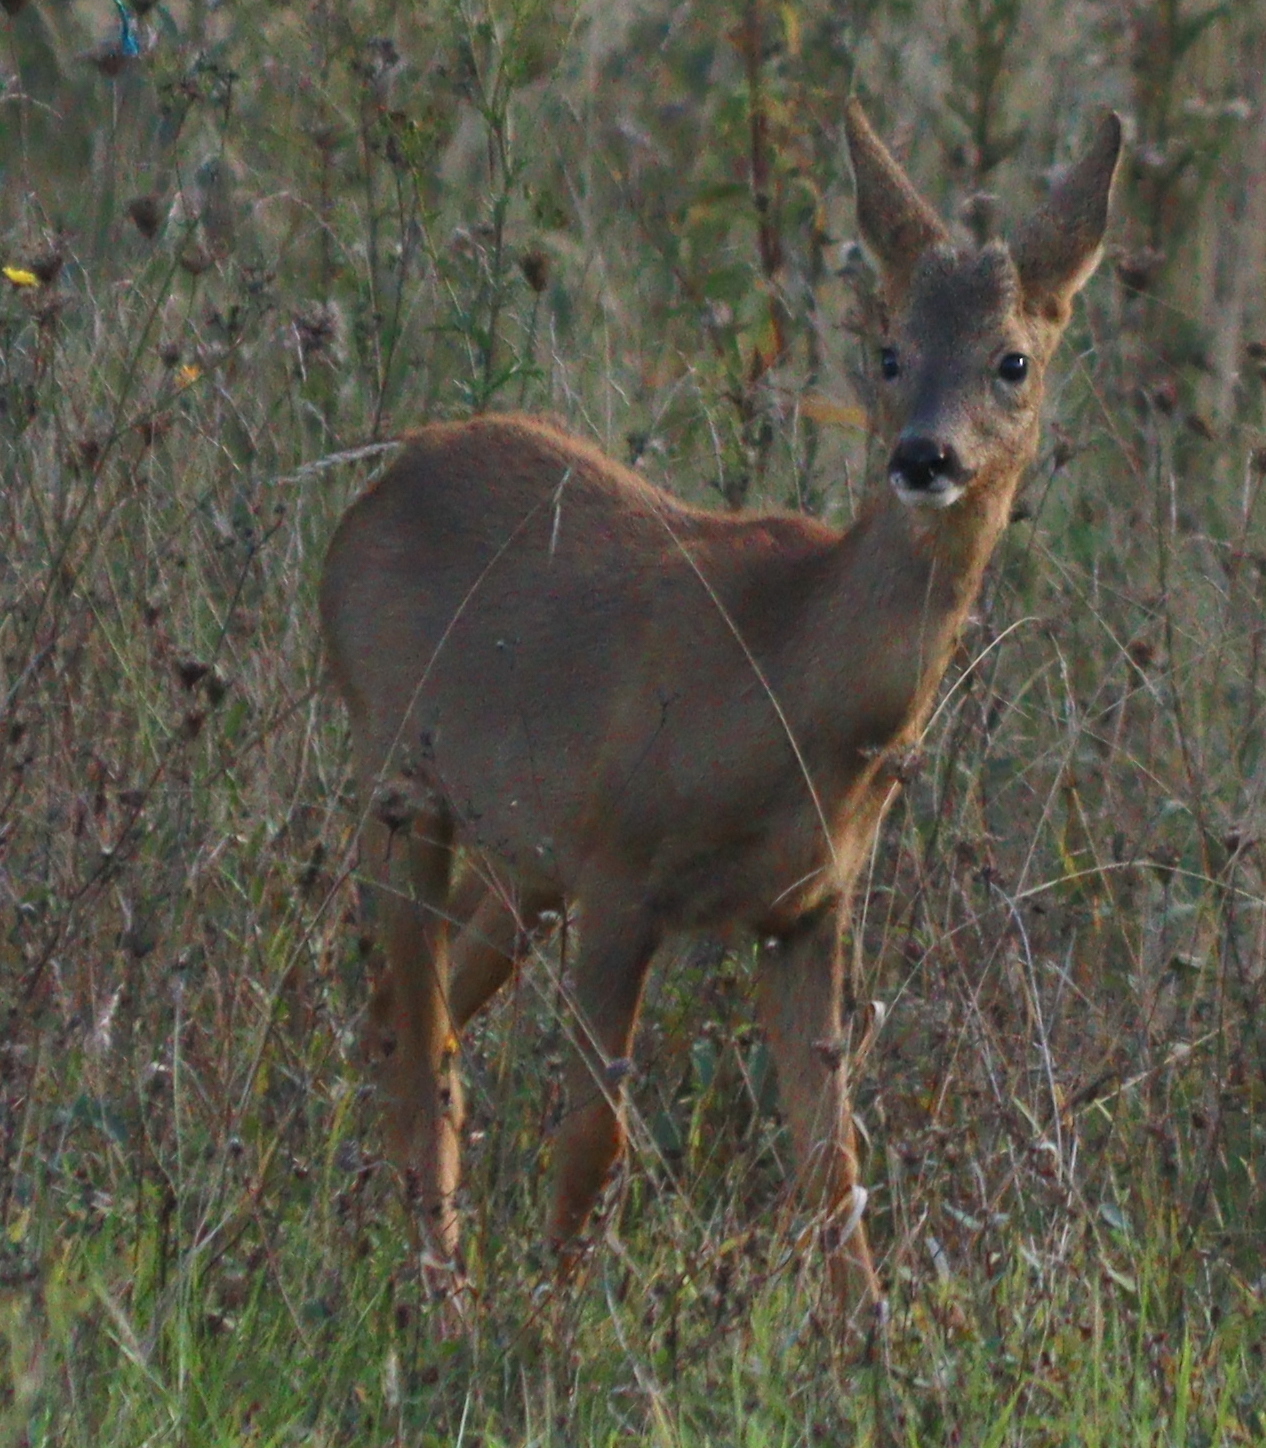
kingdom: Animalia
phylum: Chordata
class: Mammalia
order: Artiodactyla
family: Cervidae
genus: Capreolus
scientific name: Capreolus capreolus
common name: Western roe deer
